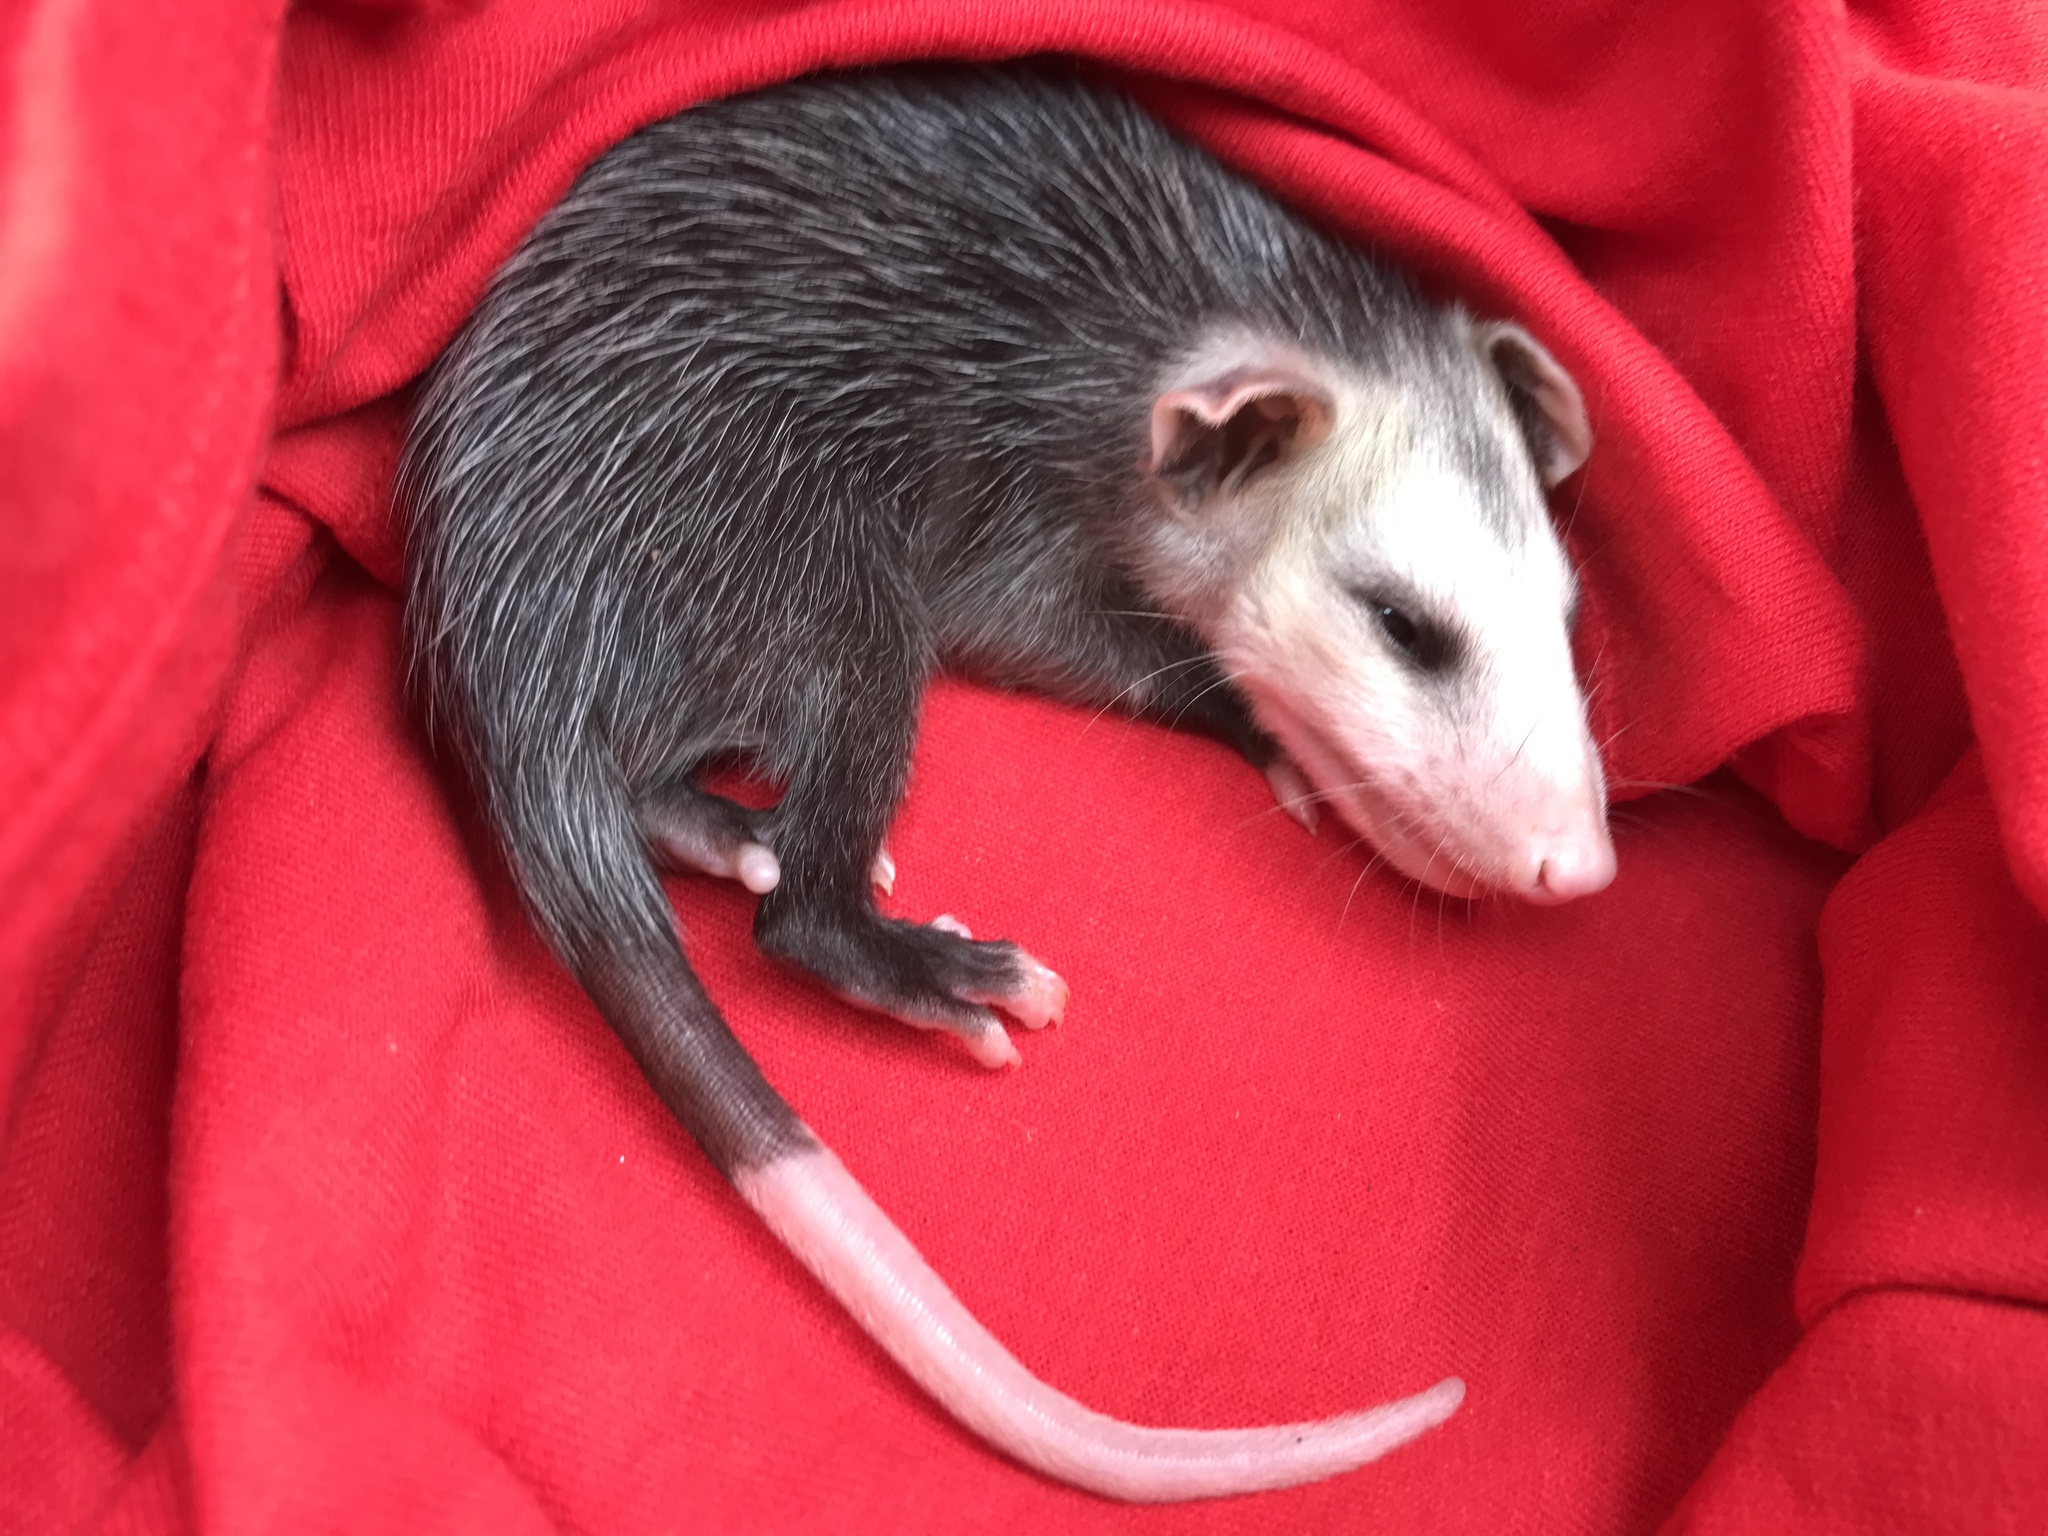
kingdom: Animalia
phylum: Chordata
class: Mammalia
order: Didelphimorphia
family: Didelphidae
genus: Didelphis
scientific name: Didelphis virginiana
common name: Virginia opossum
